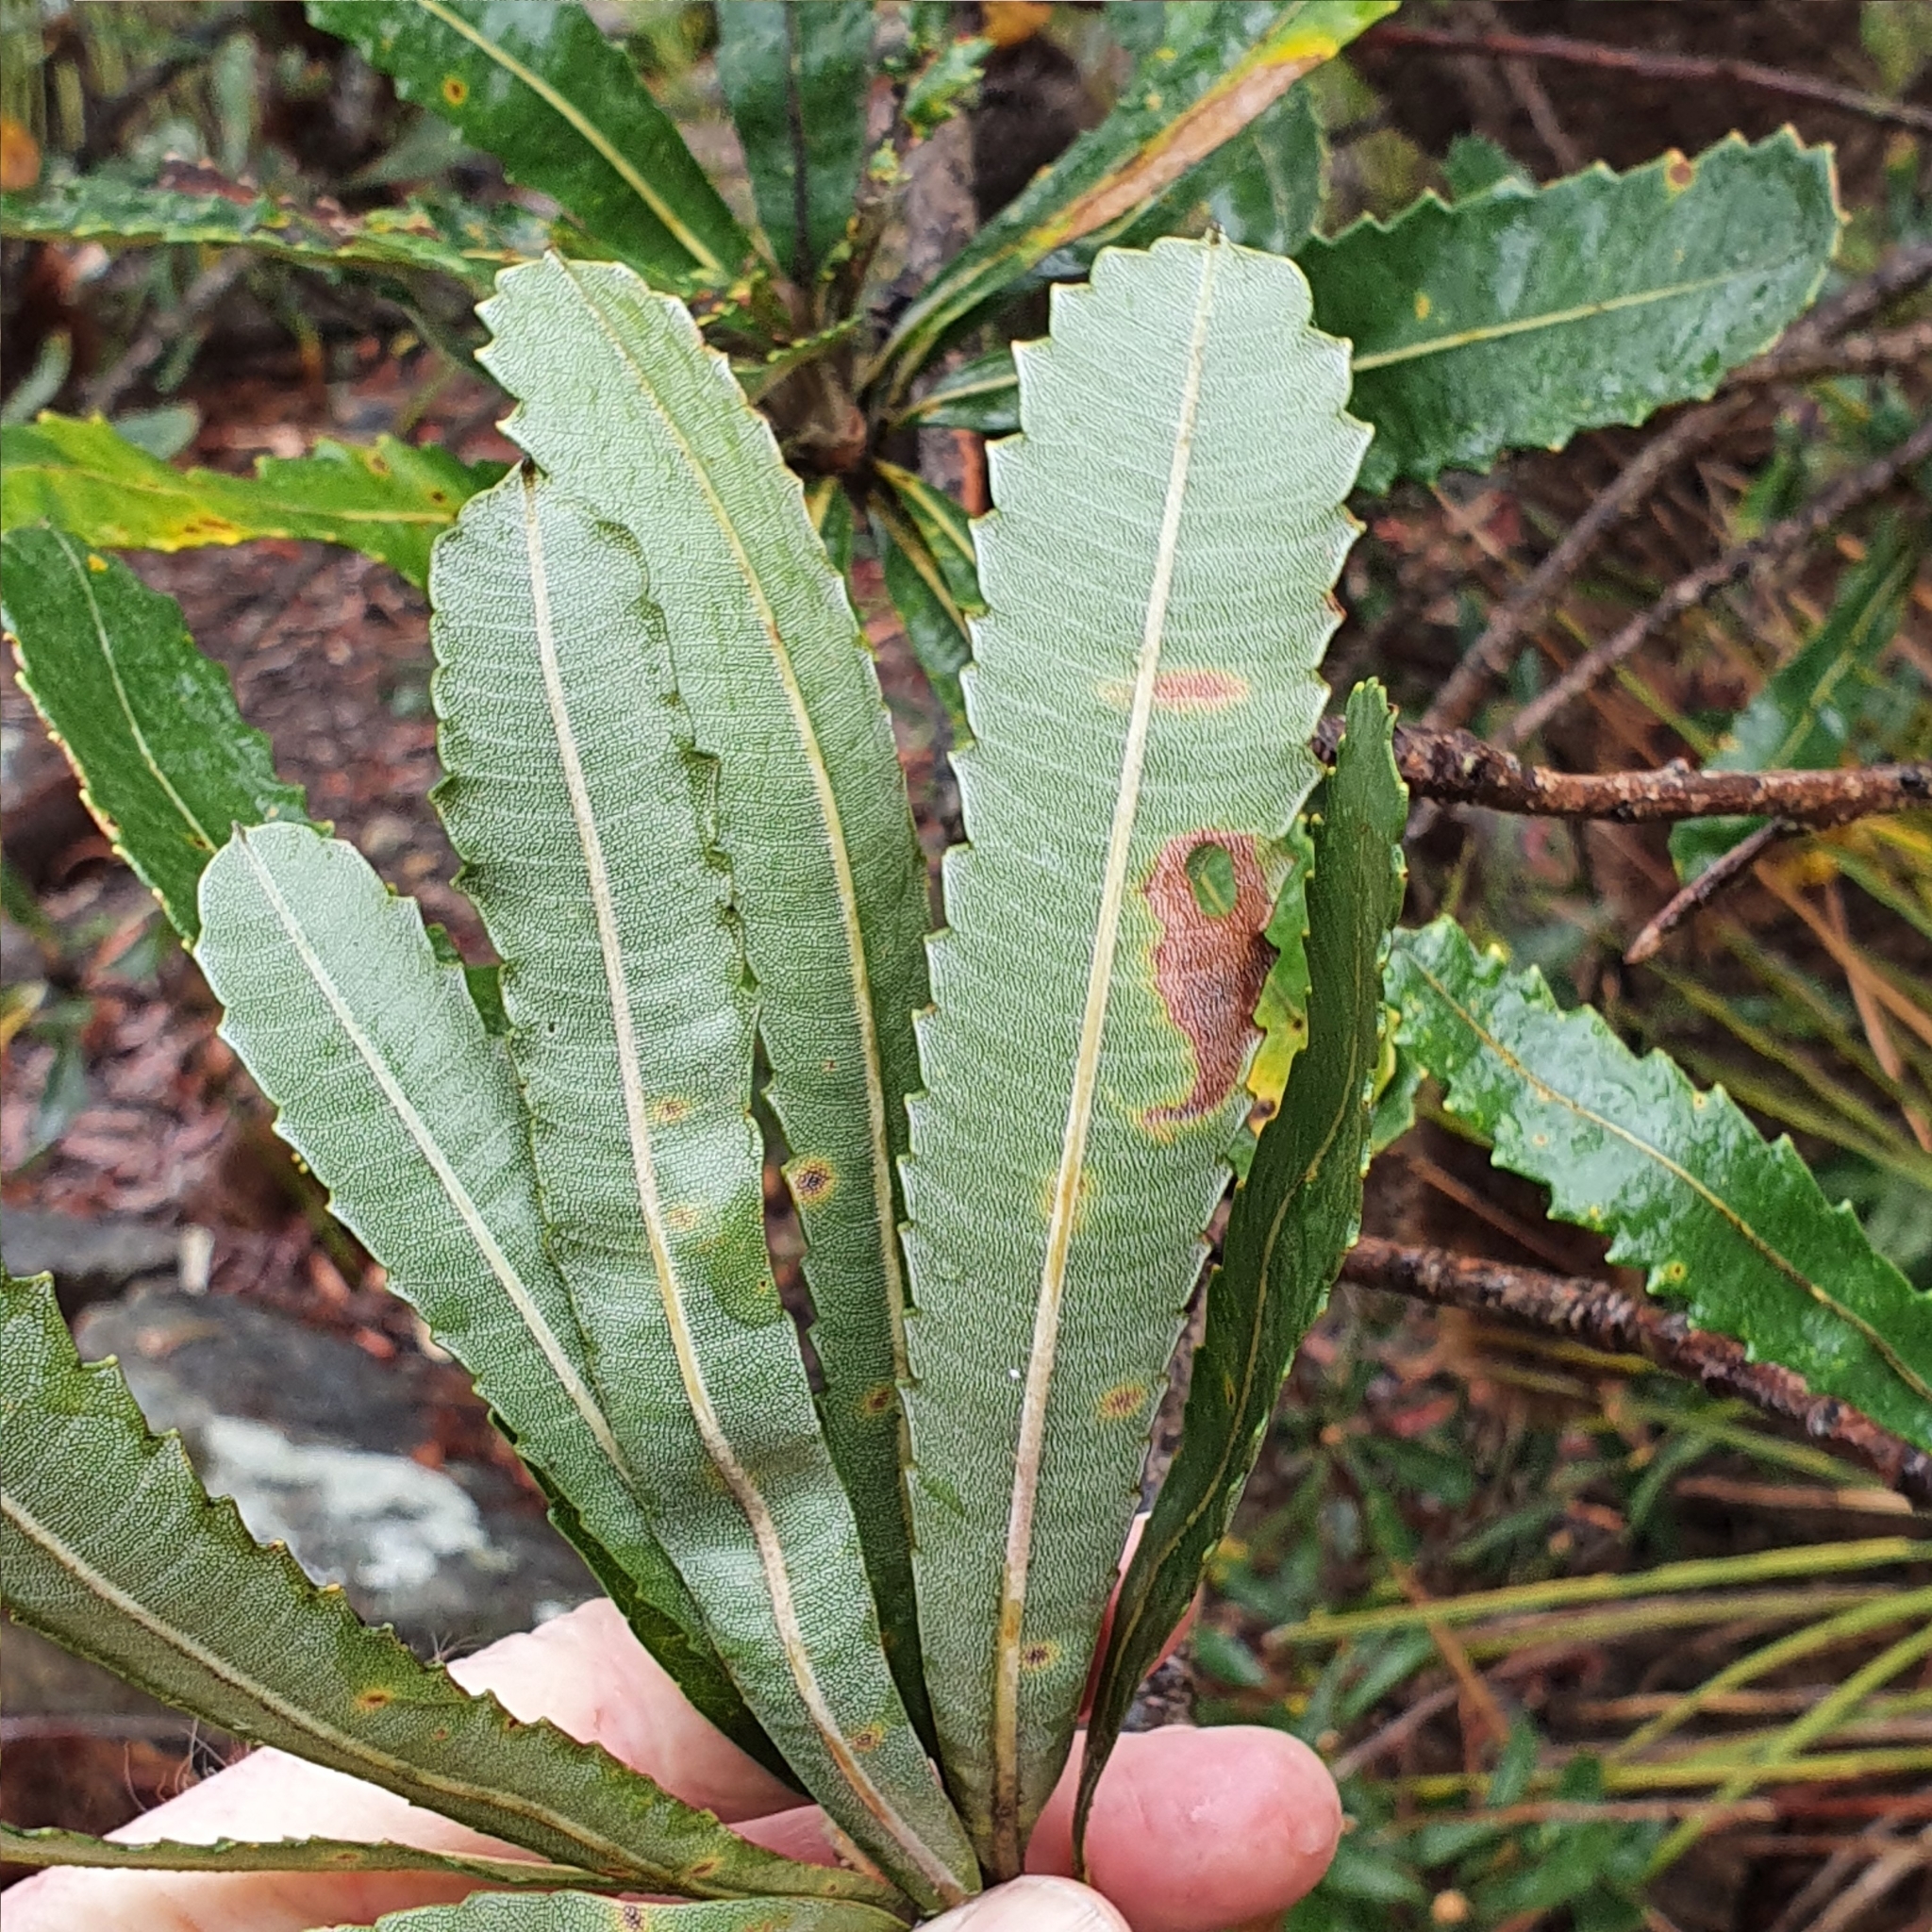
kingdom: Plantae
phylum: Tracheophyta
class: Magnoliopsida
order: Proteales
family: Proteaceae
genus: Banksia
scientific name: Banksia serrata
